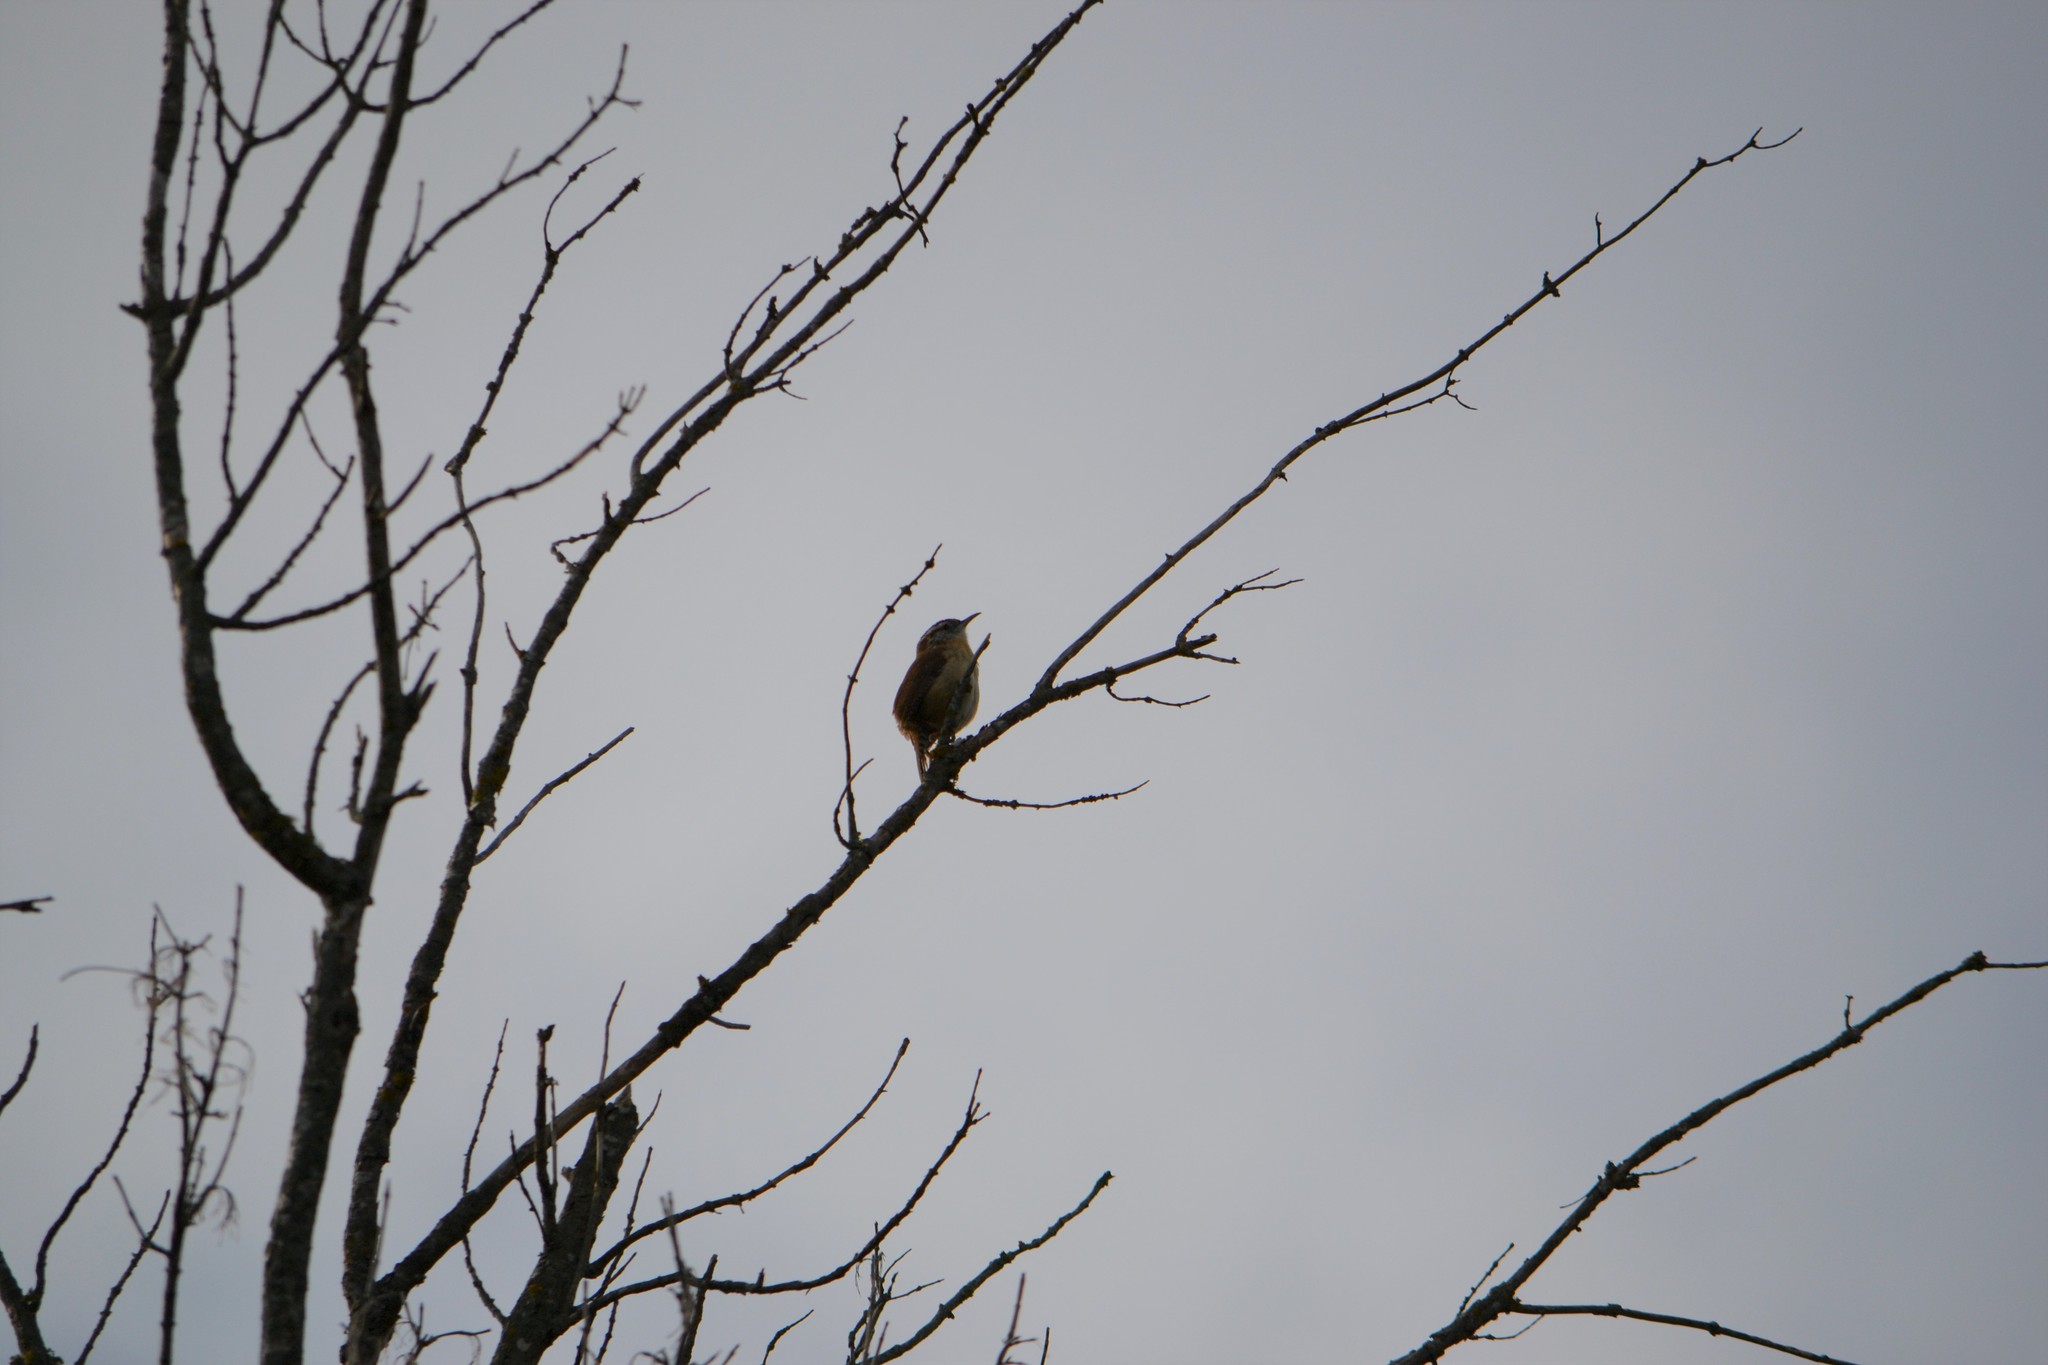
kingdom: Animalia
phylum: Chordata
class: Aves
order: Passeriformes
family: Troglodytidae
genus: Thryothorus
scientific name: Thryothorus ludovicianus
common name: Carolina wren
